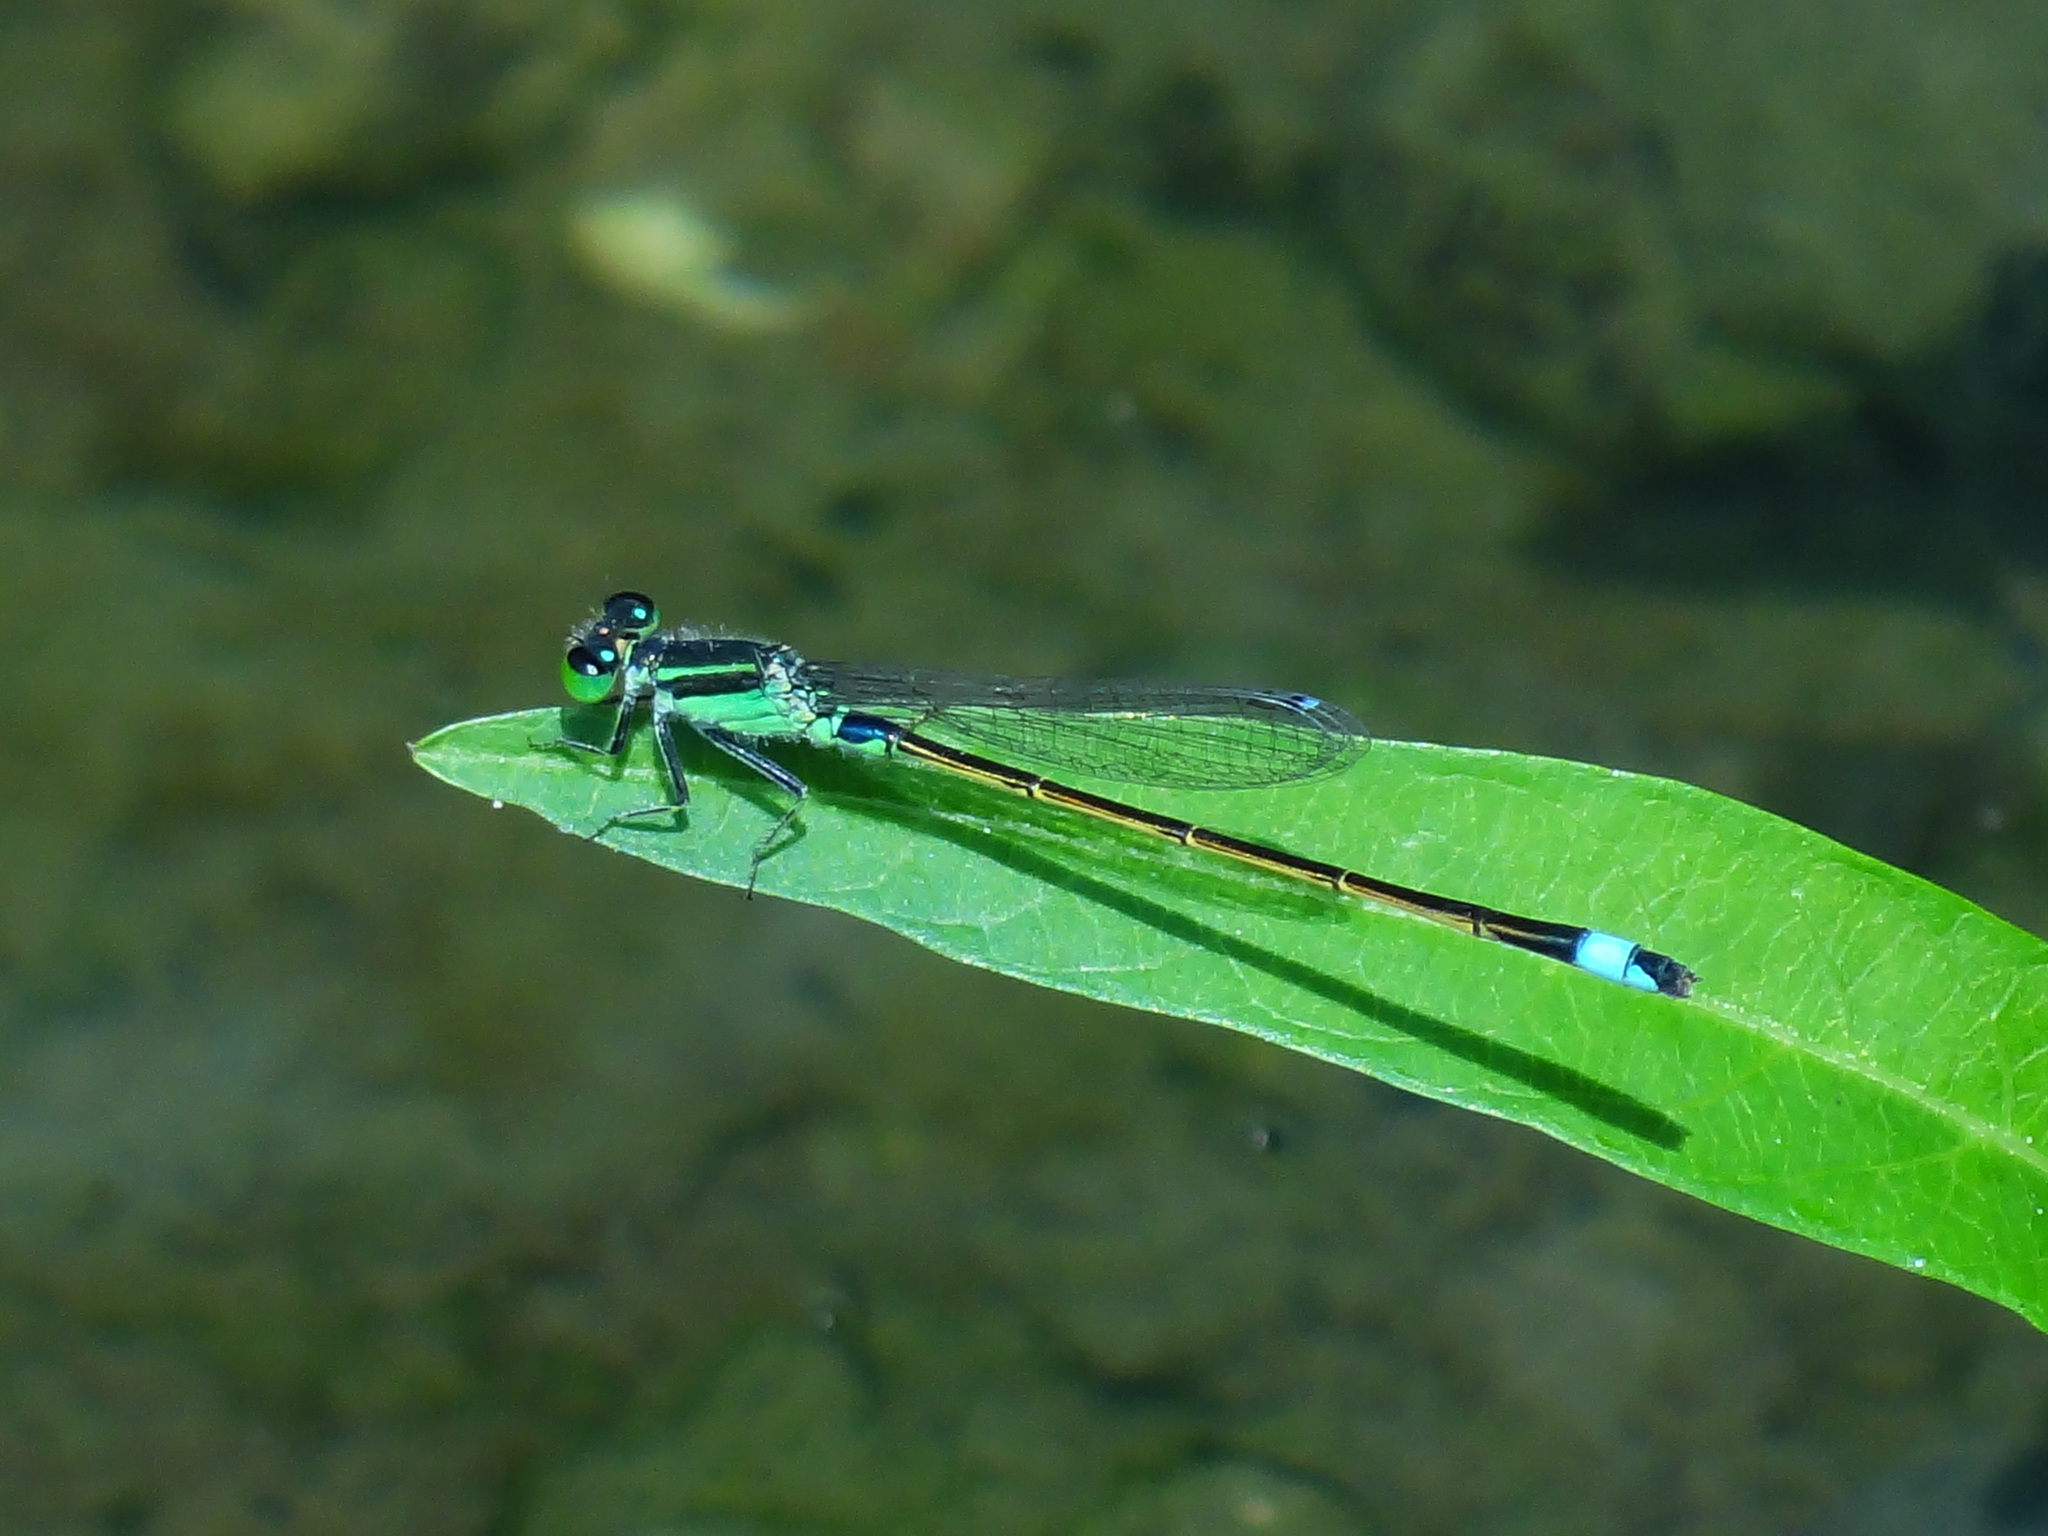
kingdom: Animalia
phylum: Arthropoda
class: Insecta
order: Odonata
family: Coenagrionidae
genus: Ischnura
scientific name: Ischnura senegalensis
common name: Tropical bluetail
